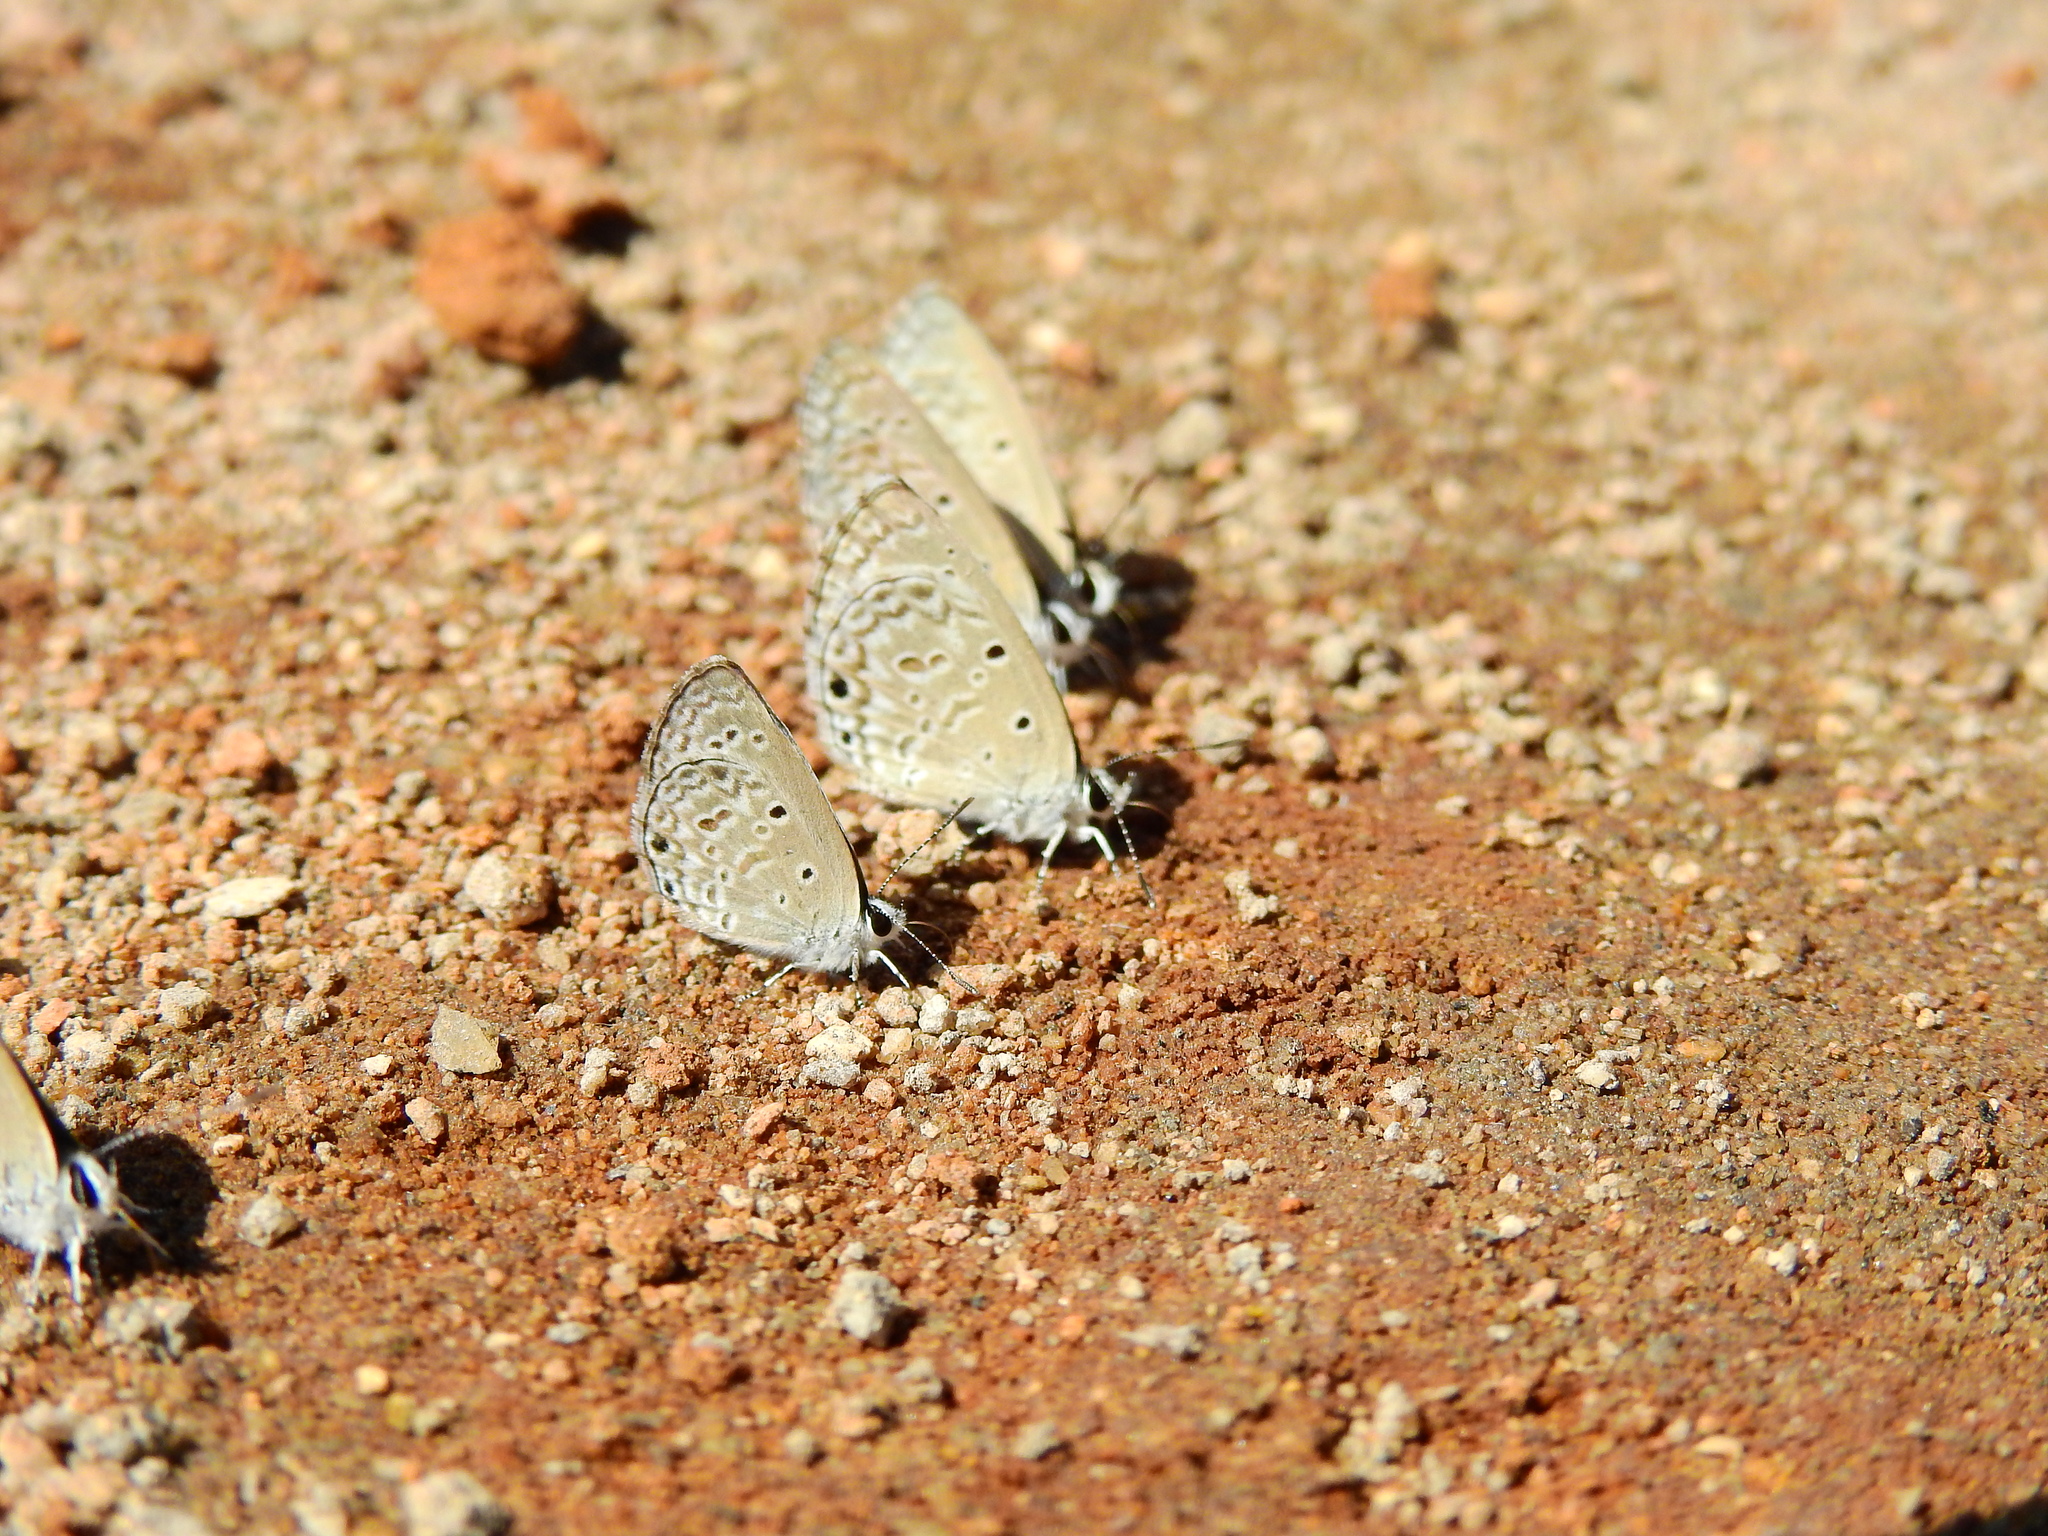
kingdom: Animalia
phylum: Arthropoda
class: Insecta
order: Lepidoptera
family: Lycaenidae
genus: Chilades
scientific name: Chilades laius
